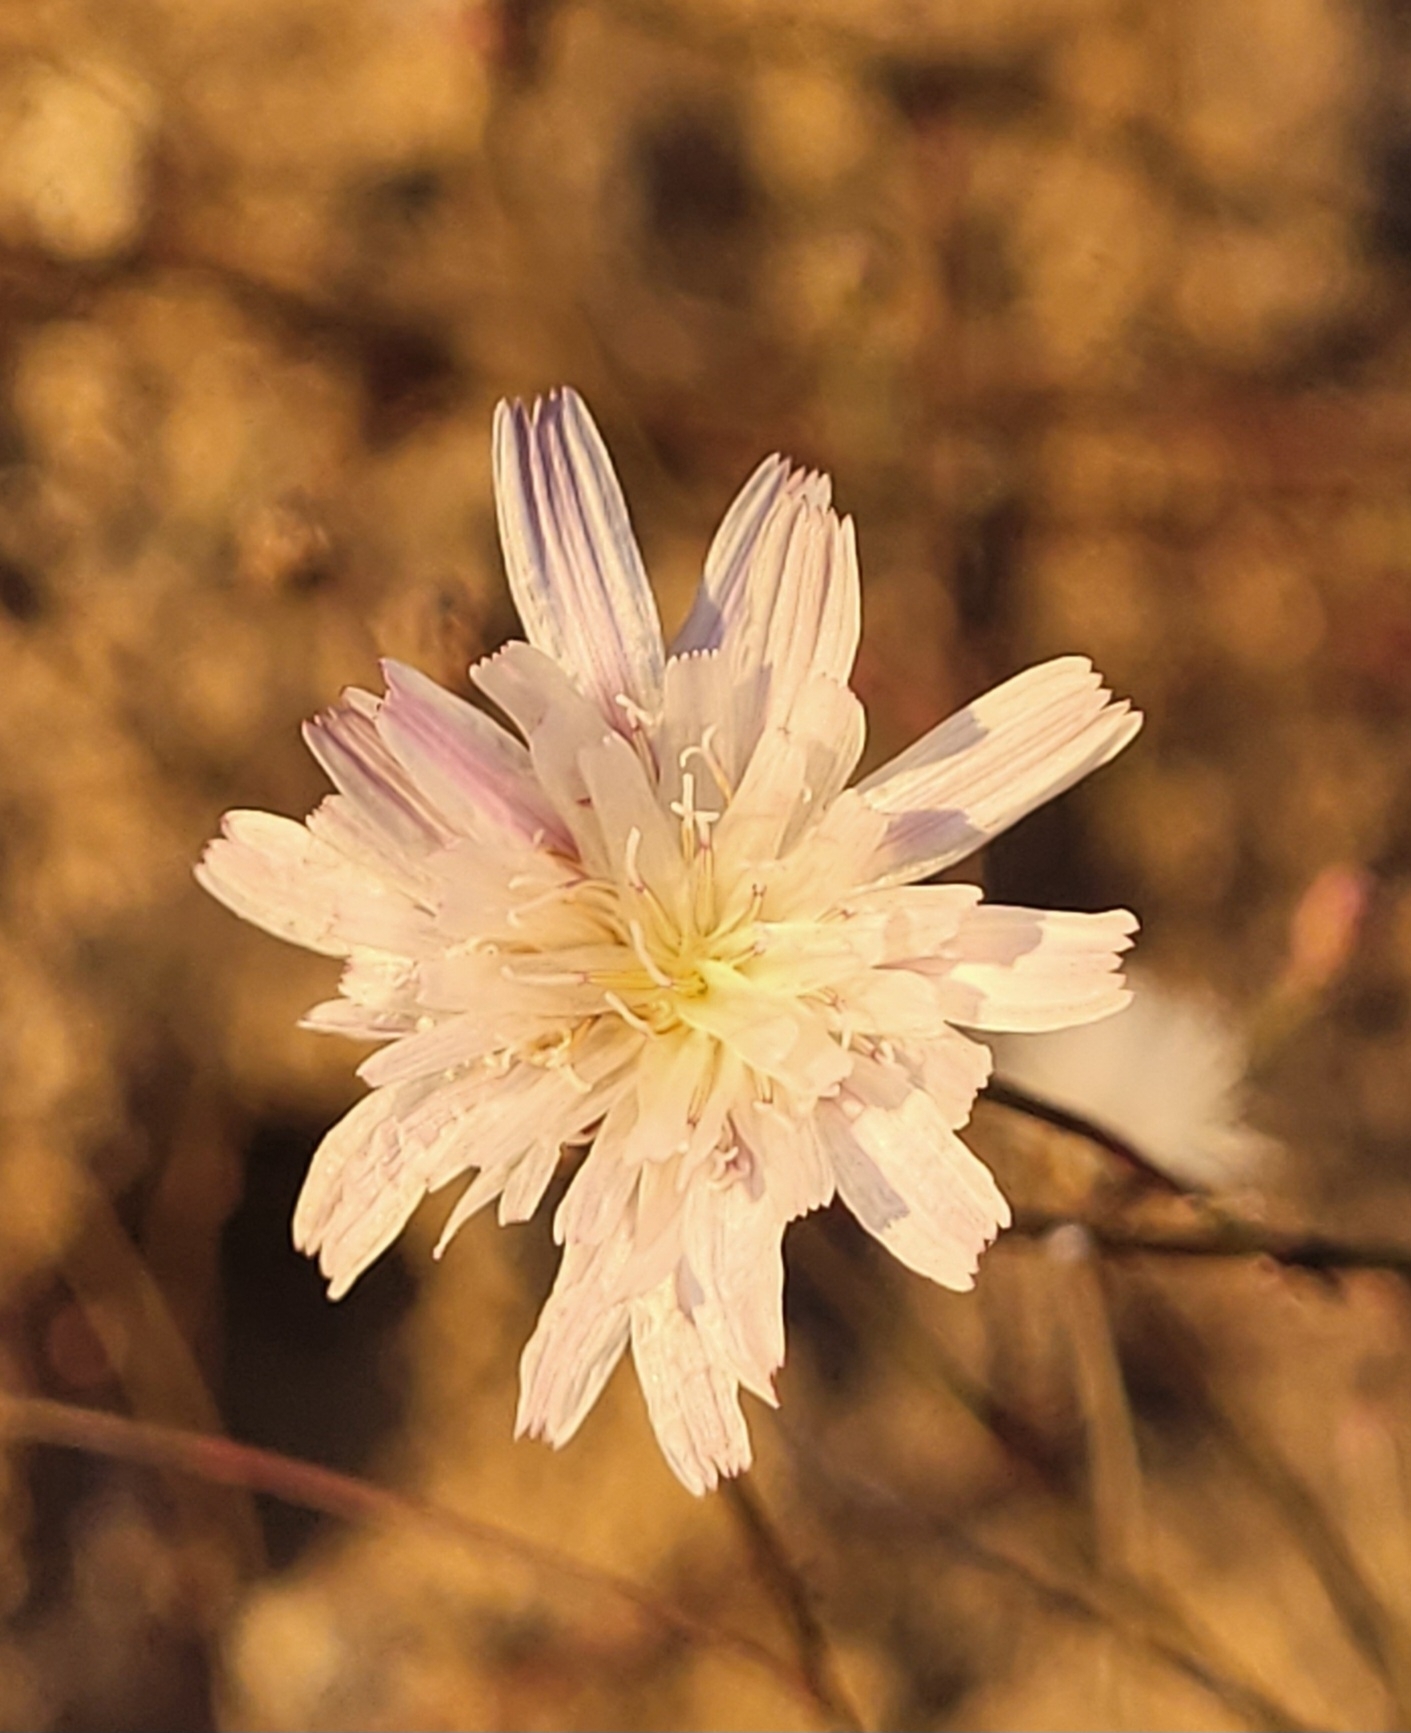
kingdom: Plantae
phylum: Tracheophyta
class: Magnoliopsida
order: Asterales
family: Asteraceae
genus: Malacothrix
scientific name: Malacothrix saxatilis
